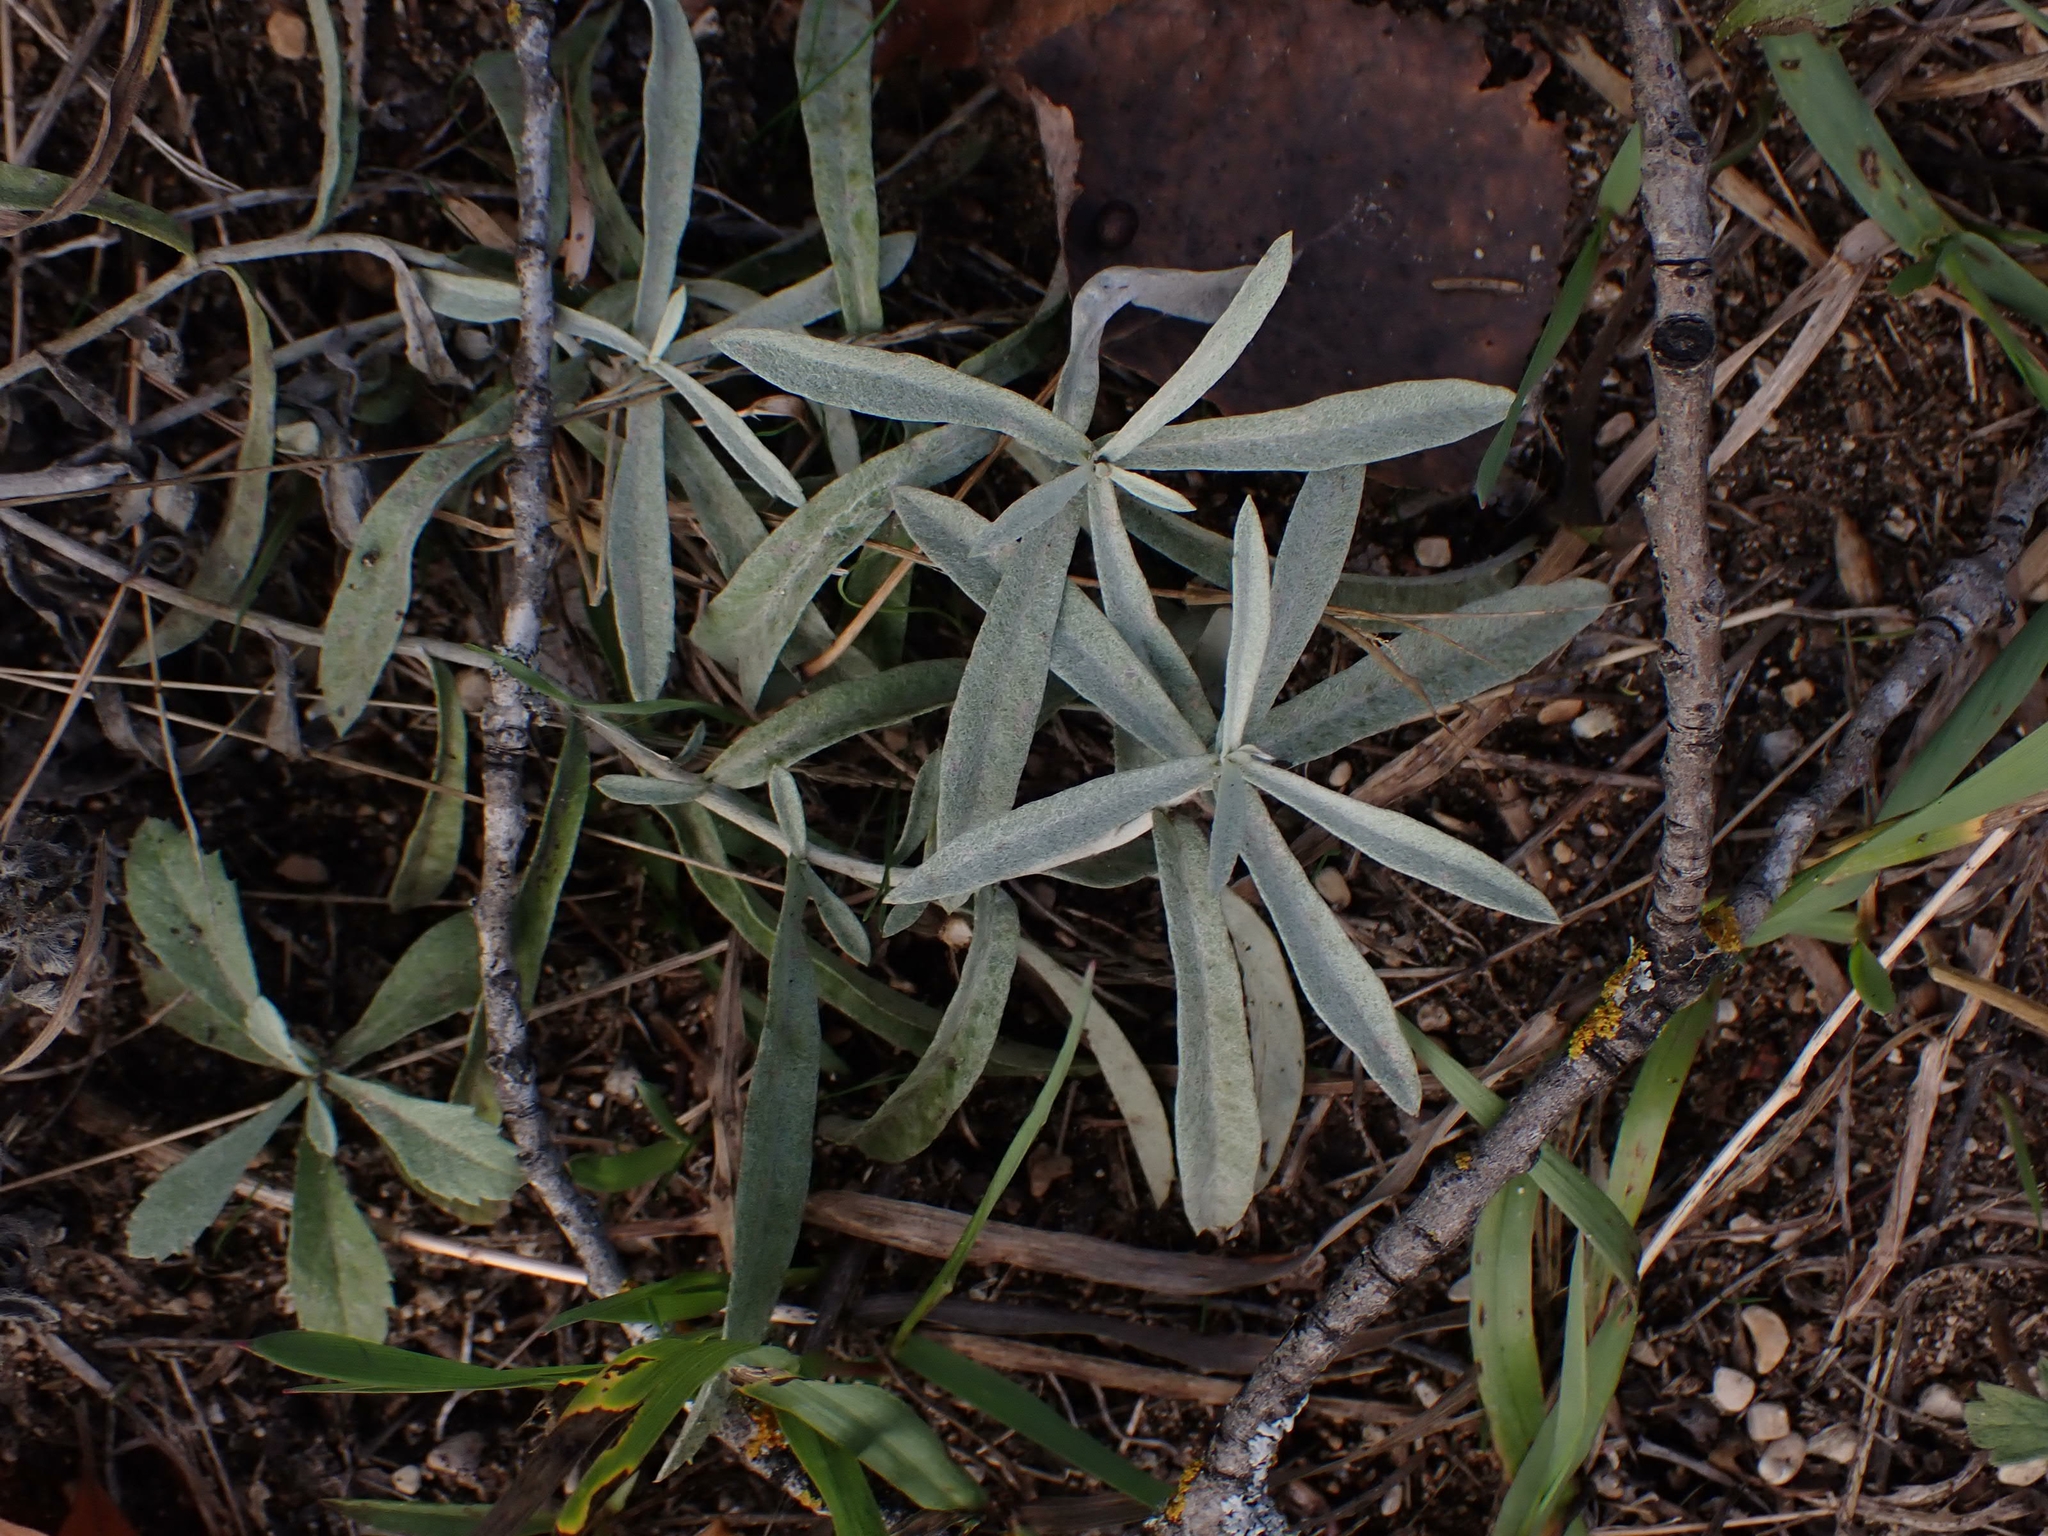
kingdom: Plantae
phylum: Tracheophyta
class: Magnoliopsida
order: Asterales
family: Asteraceae
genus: Artemisia
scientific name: Artemisia ludoviciana
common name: Western mugwort
